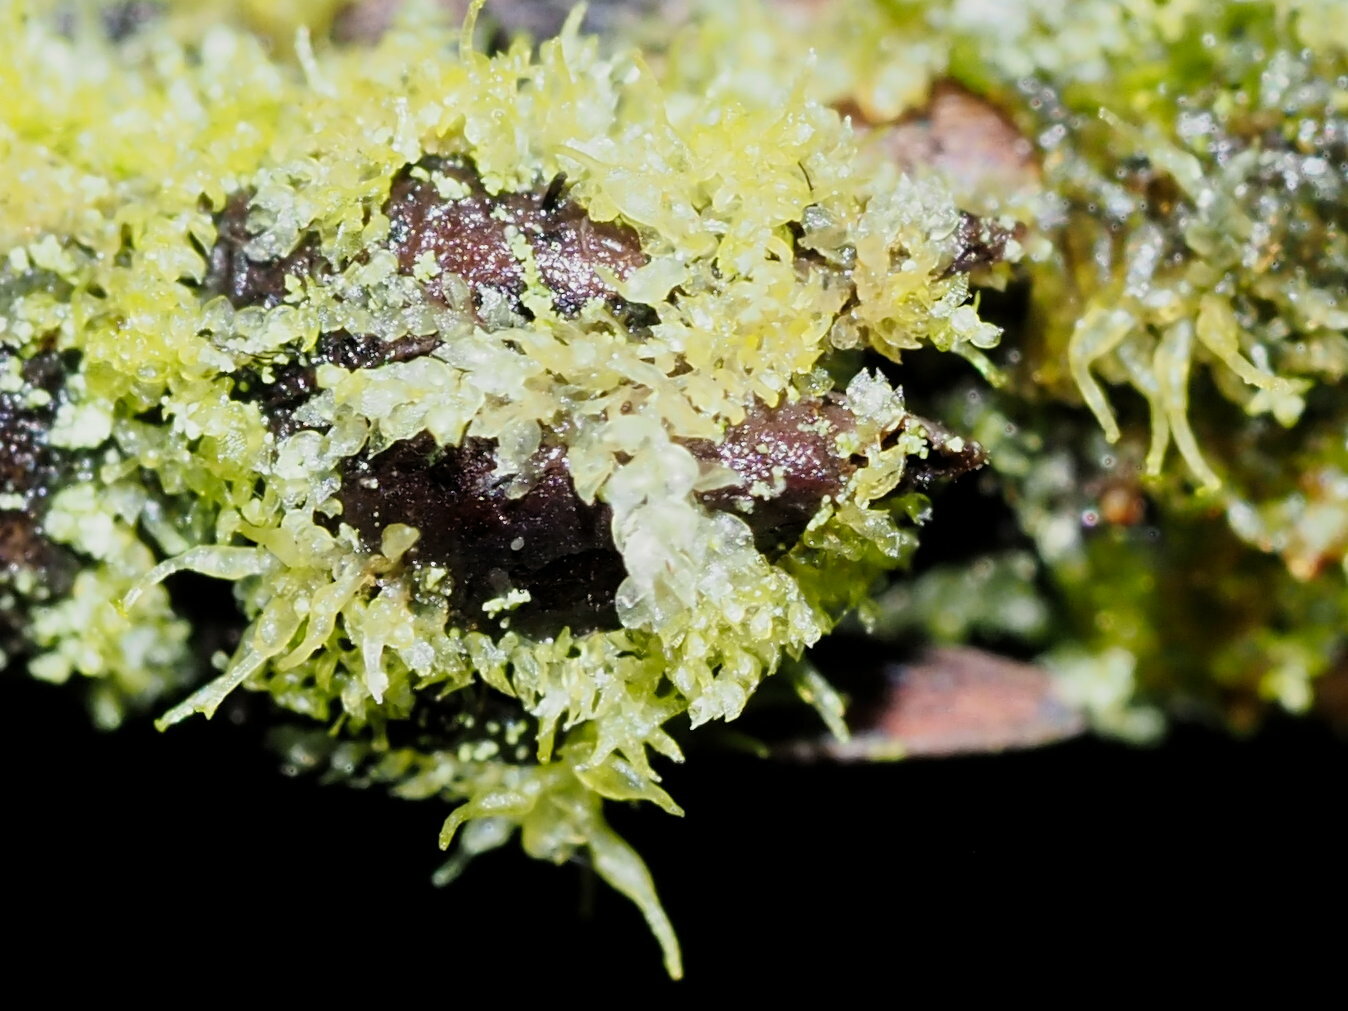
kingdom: Plantae
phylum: Marchantiophyta
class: Jungermanniopsida
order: Porellales
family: Lejeuneaceae
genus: Colura
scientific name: Colura tenuicornis
